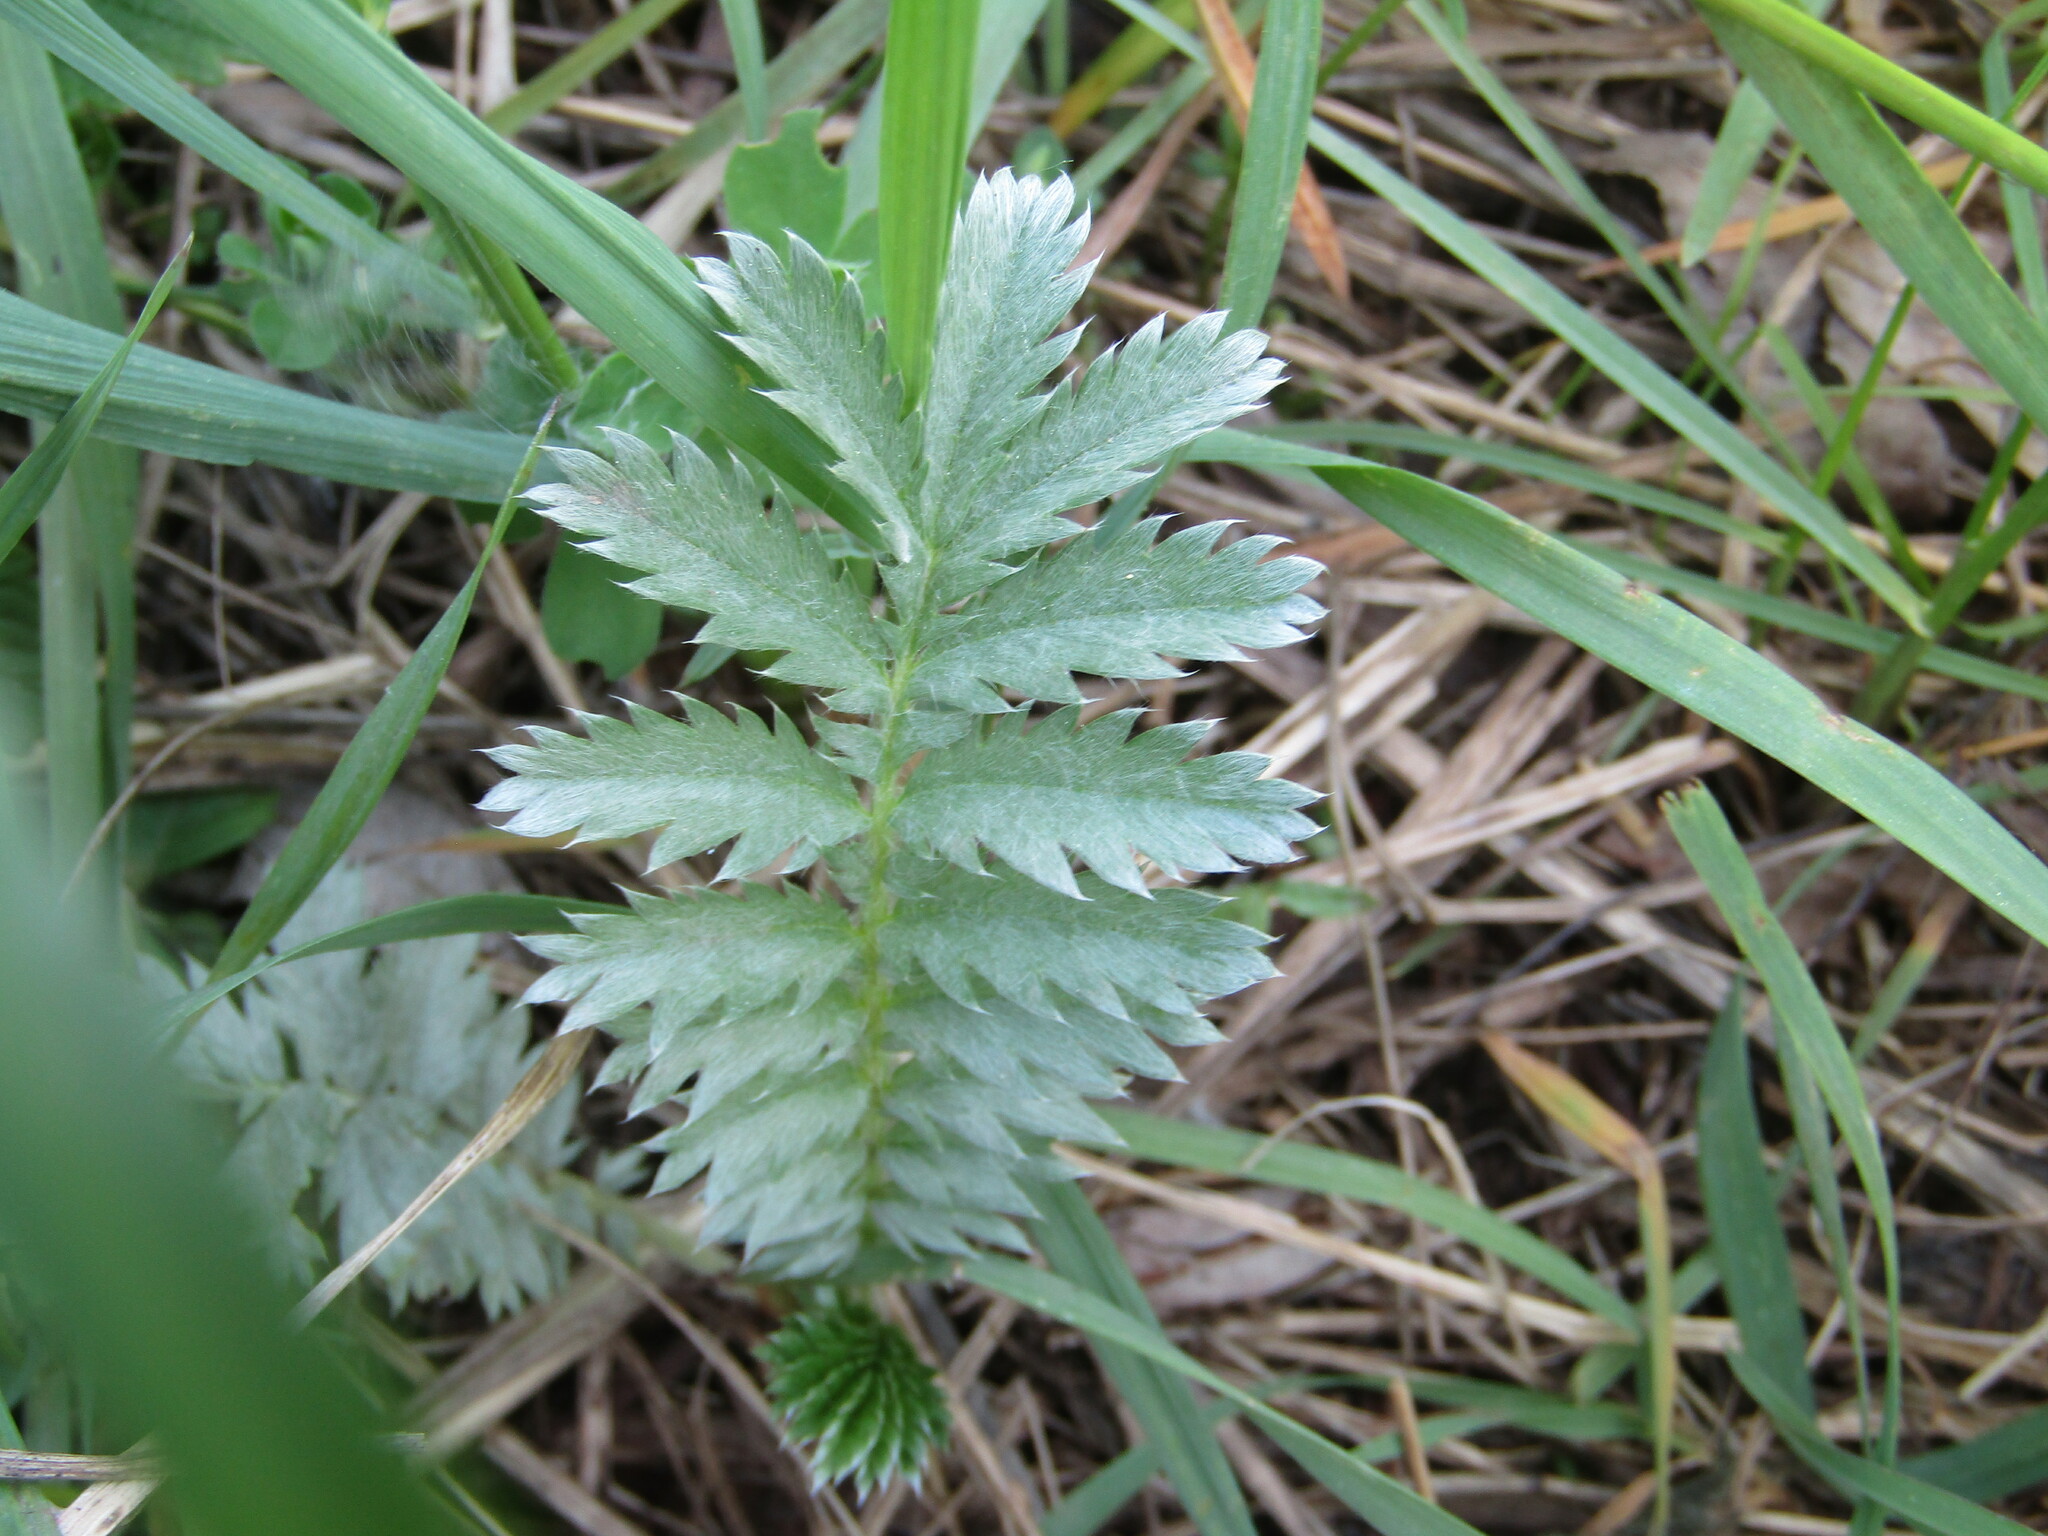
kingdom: Plantae
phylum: Tracheophyta
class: Magnoliopsida
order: Rosales
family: Rosaceae
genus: Argentina
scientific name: Argentina anserina
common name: Common silverweed
